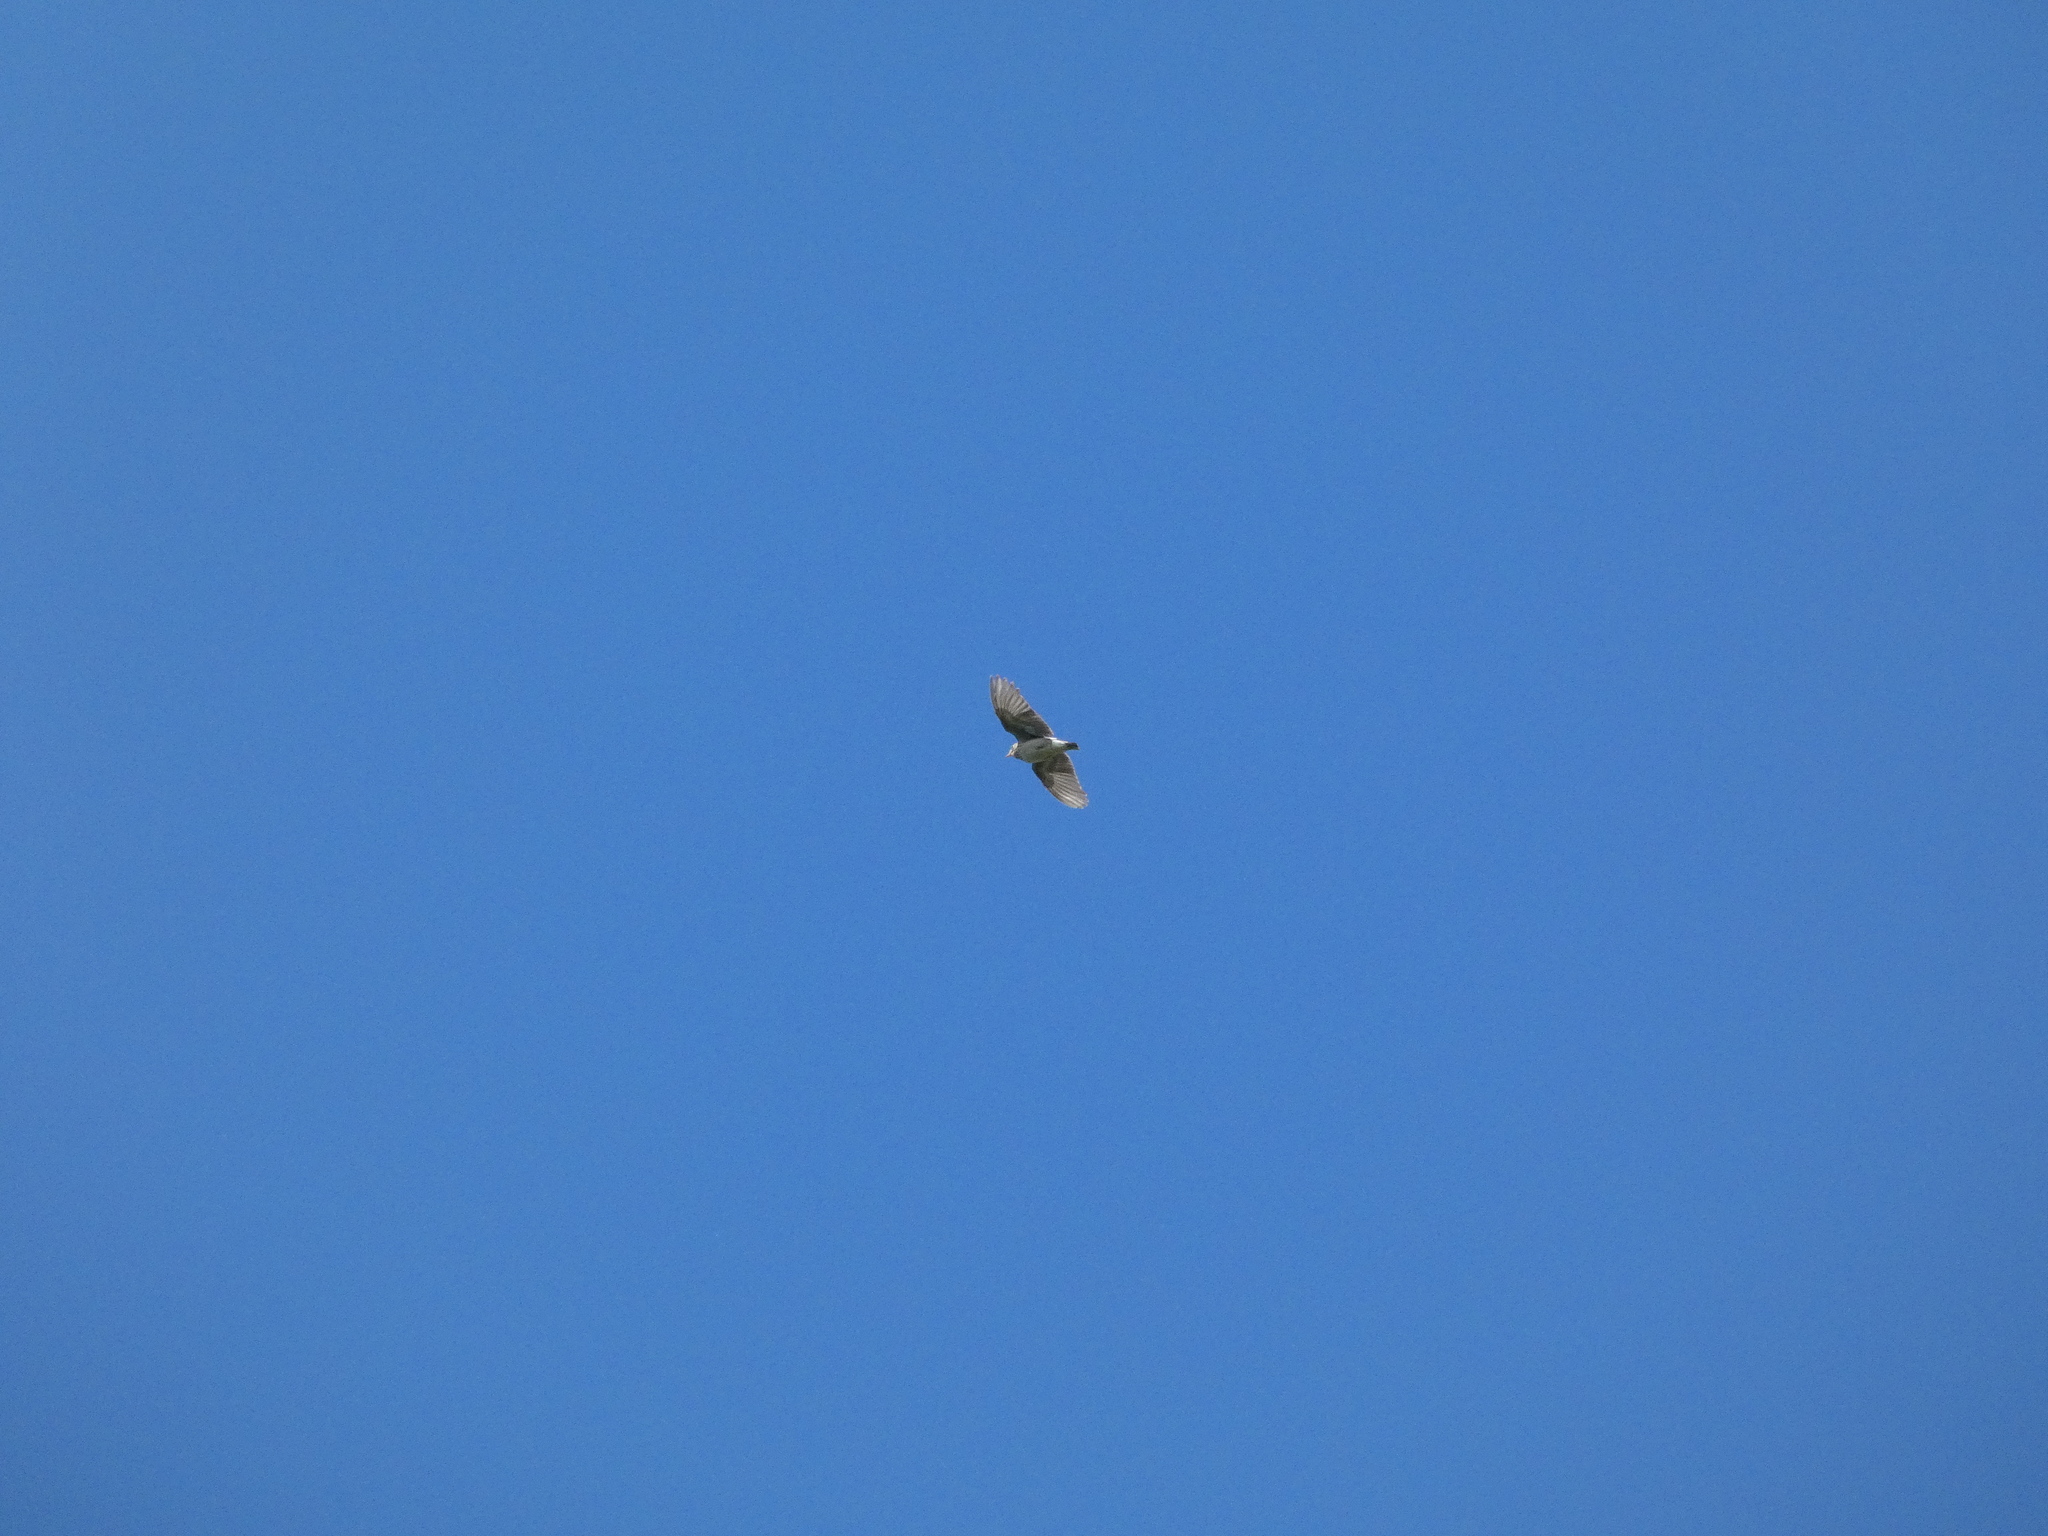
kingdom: Animalia
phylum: Chordata
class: Aves
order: Passeriformes
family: Alaudidae
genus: Lullula
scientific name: Lullula arborea
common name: Woodlark
